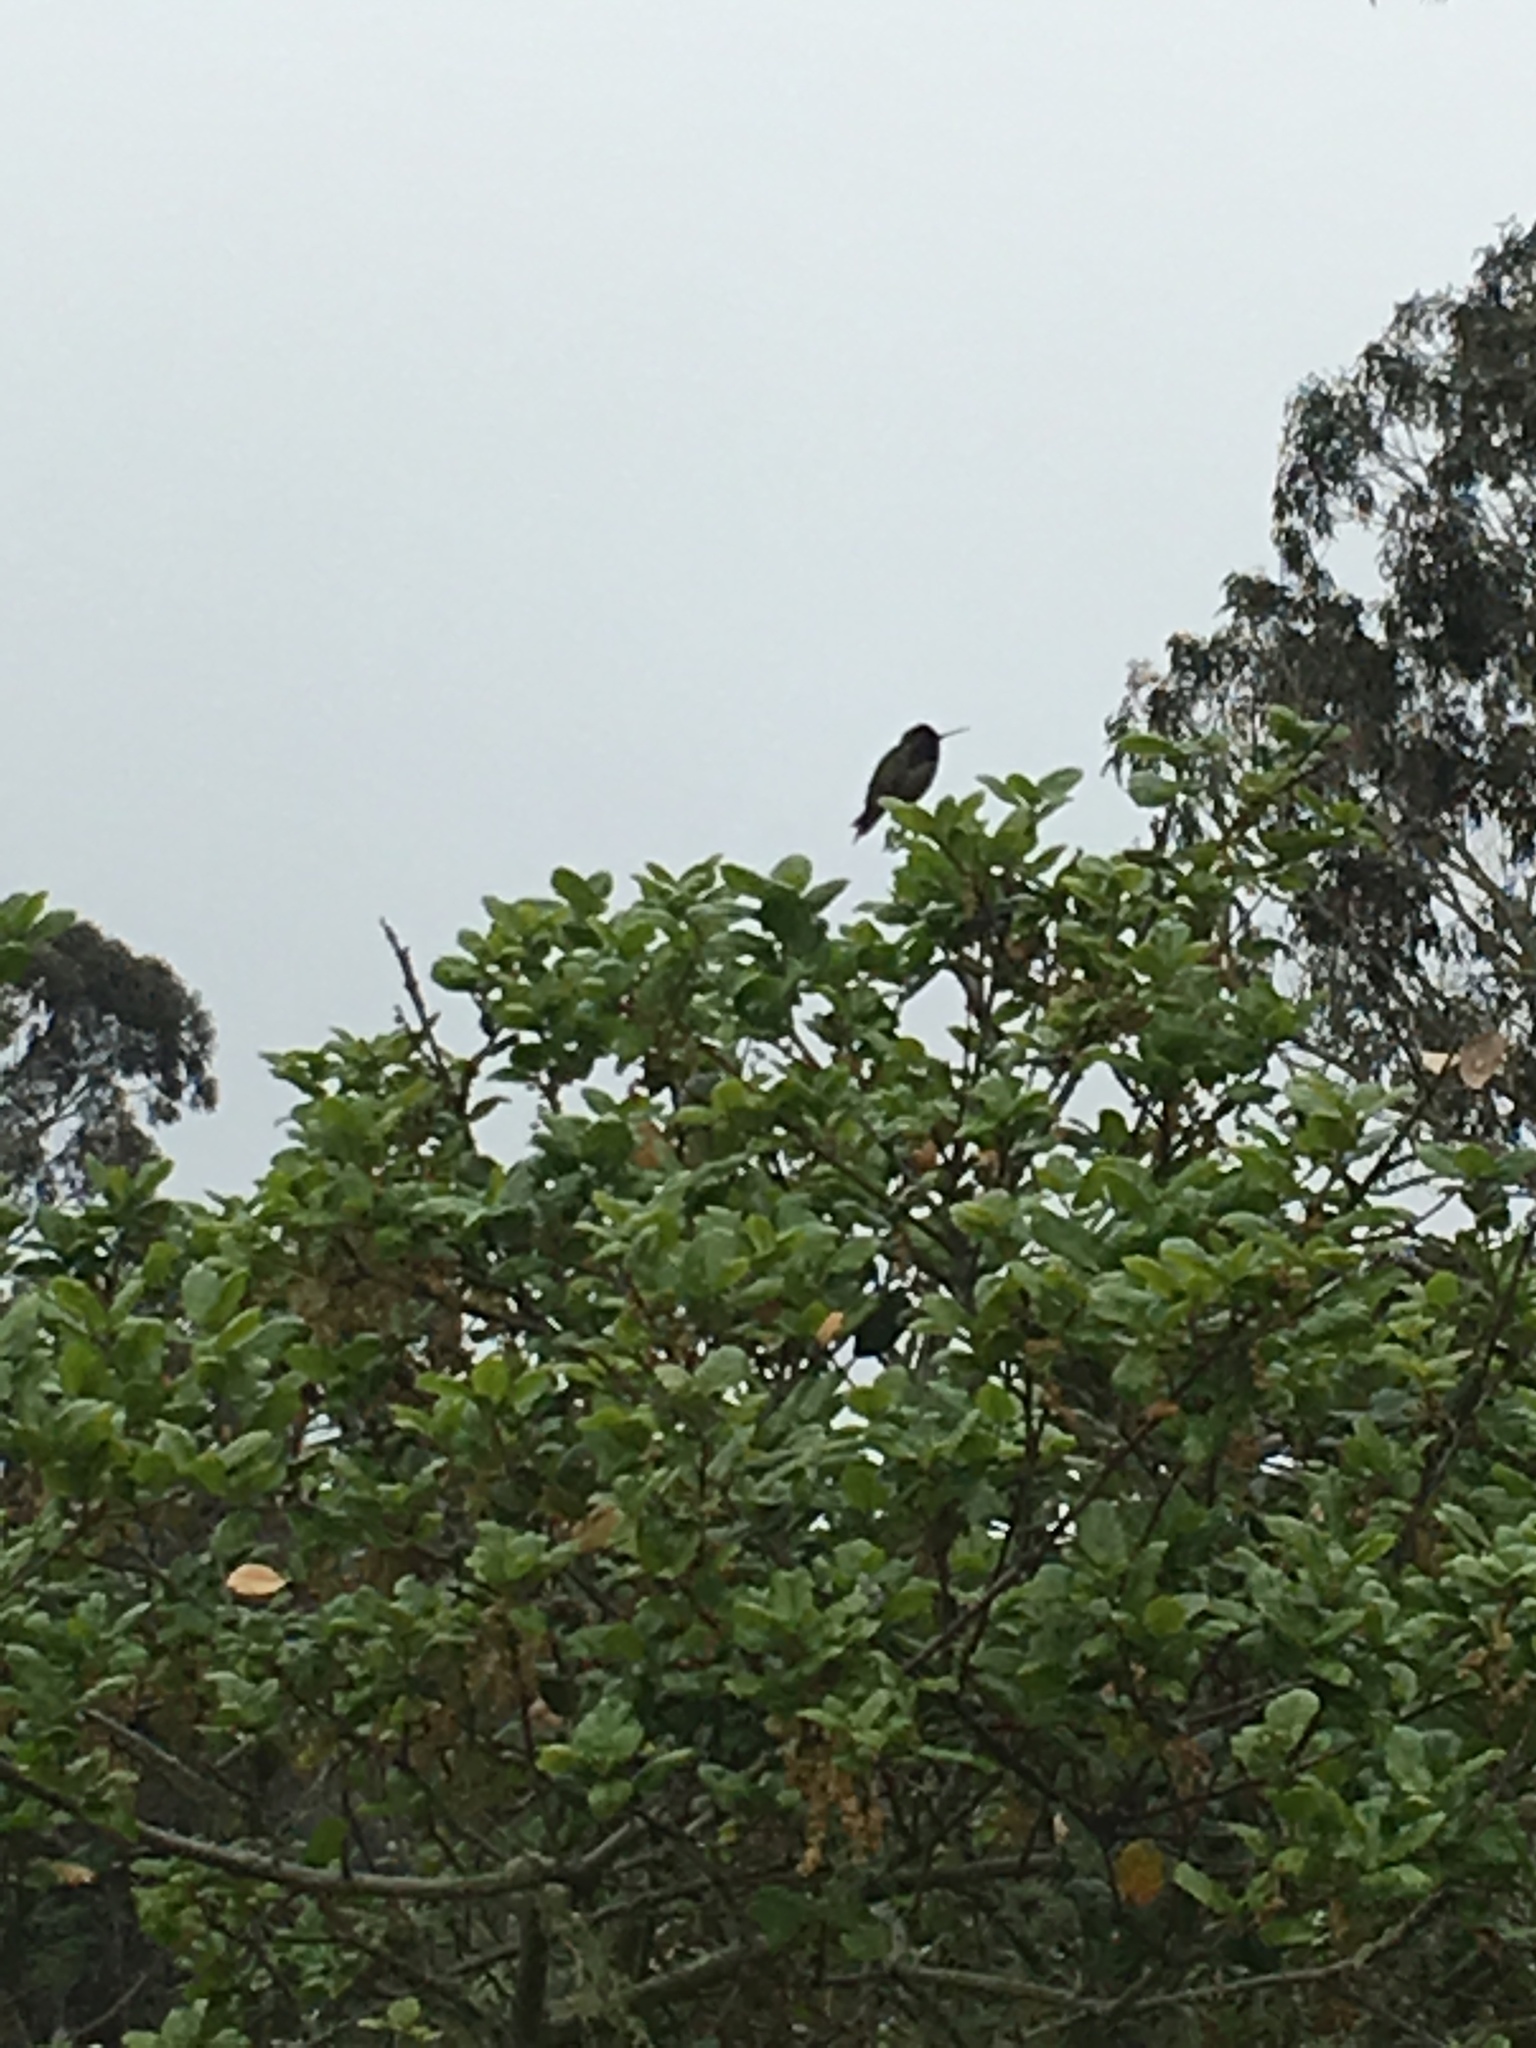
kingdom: Animalia
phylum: Chordata
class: Aves
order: Apodiformes
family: Trochilidae
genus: Calypte
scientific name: Calypte anna
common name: Anna's hummingbird
